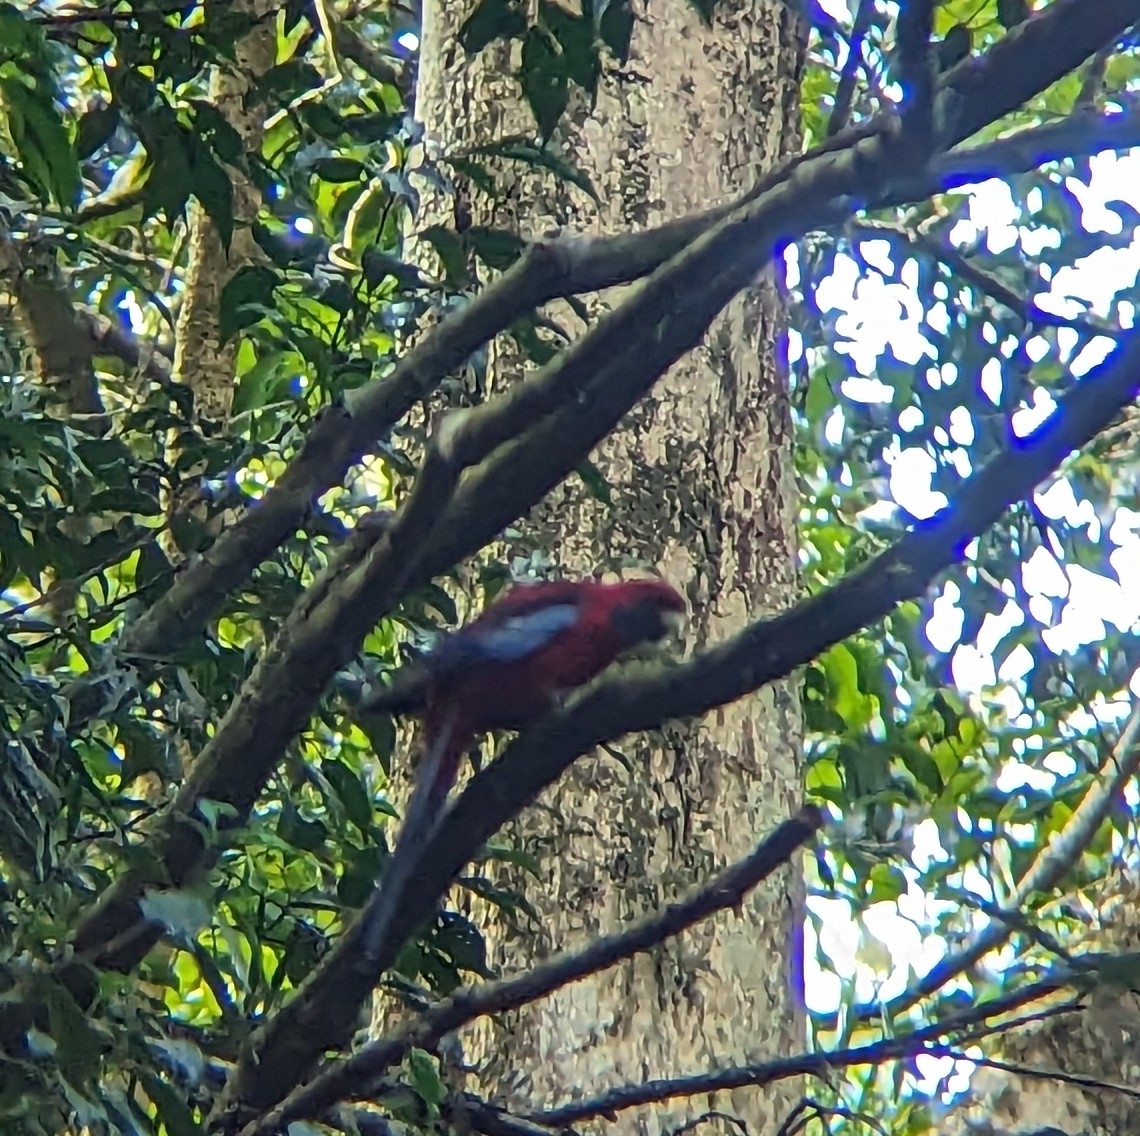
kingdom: Animalia
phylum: Chordata
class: Aves
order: Psittaciformes
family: Psittacidae
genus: Platycercus
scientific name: Platycercus elegans
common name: Crimson rosella
